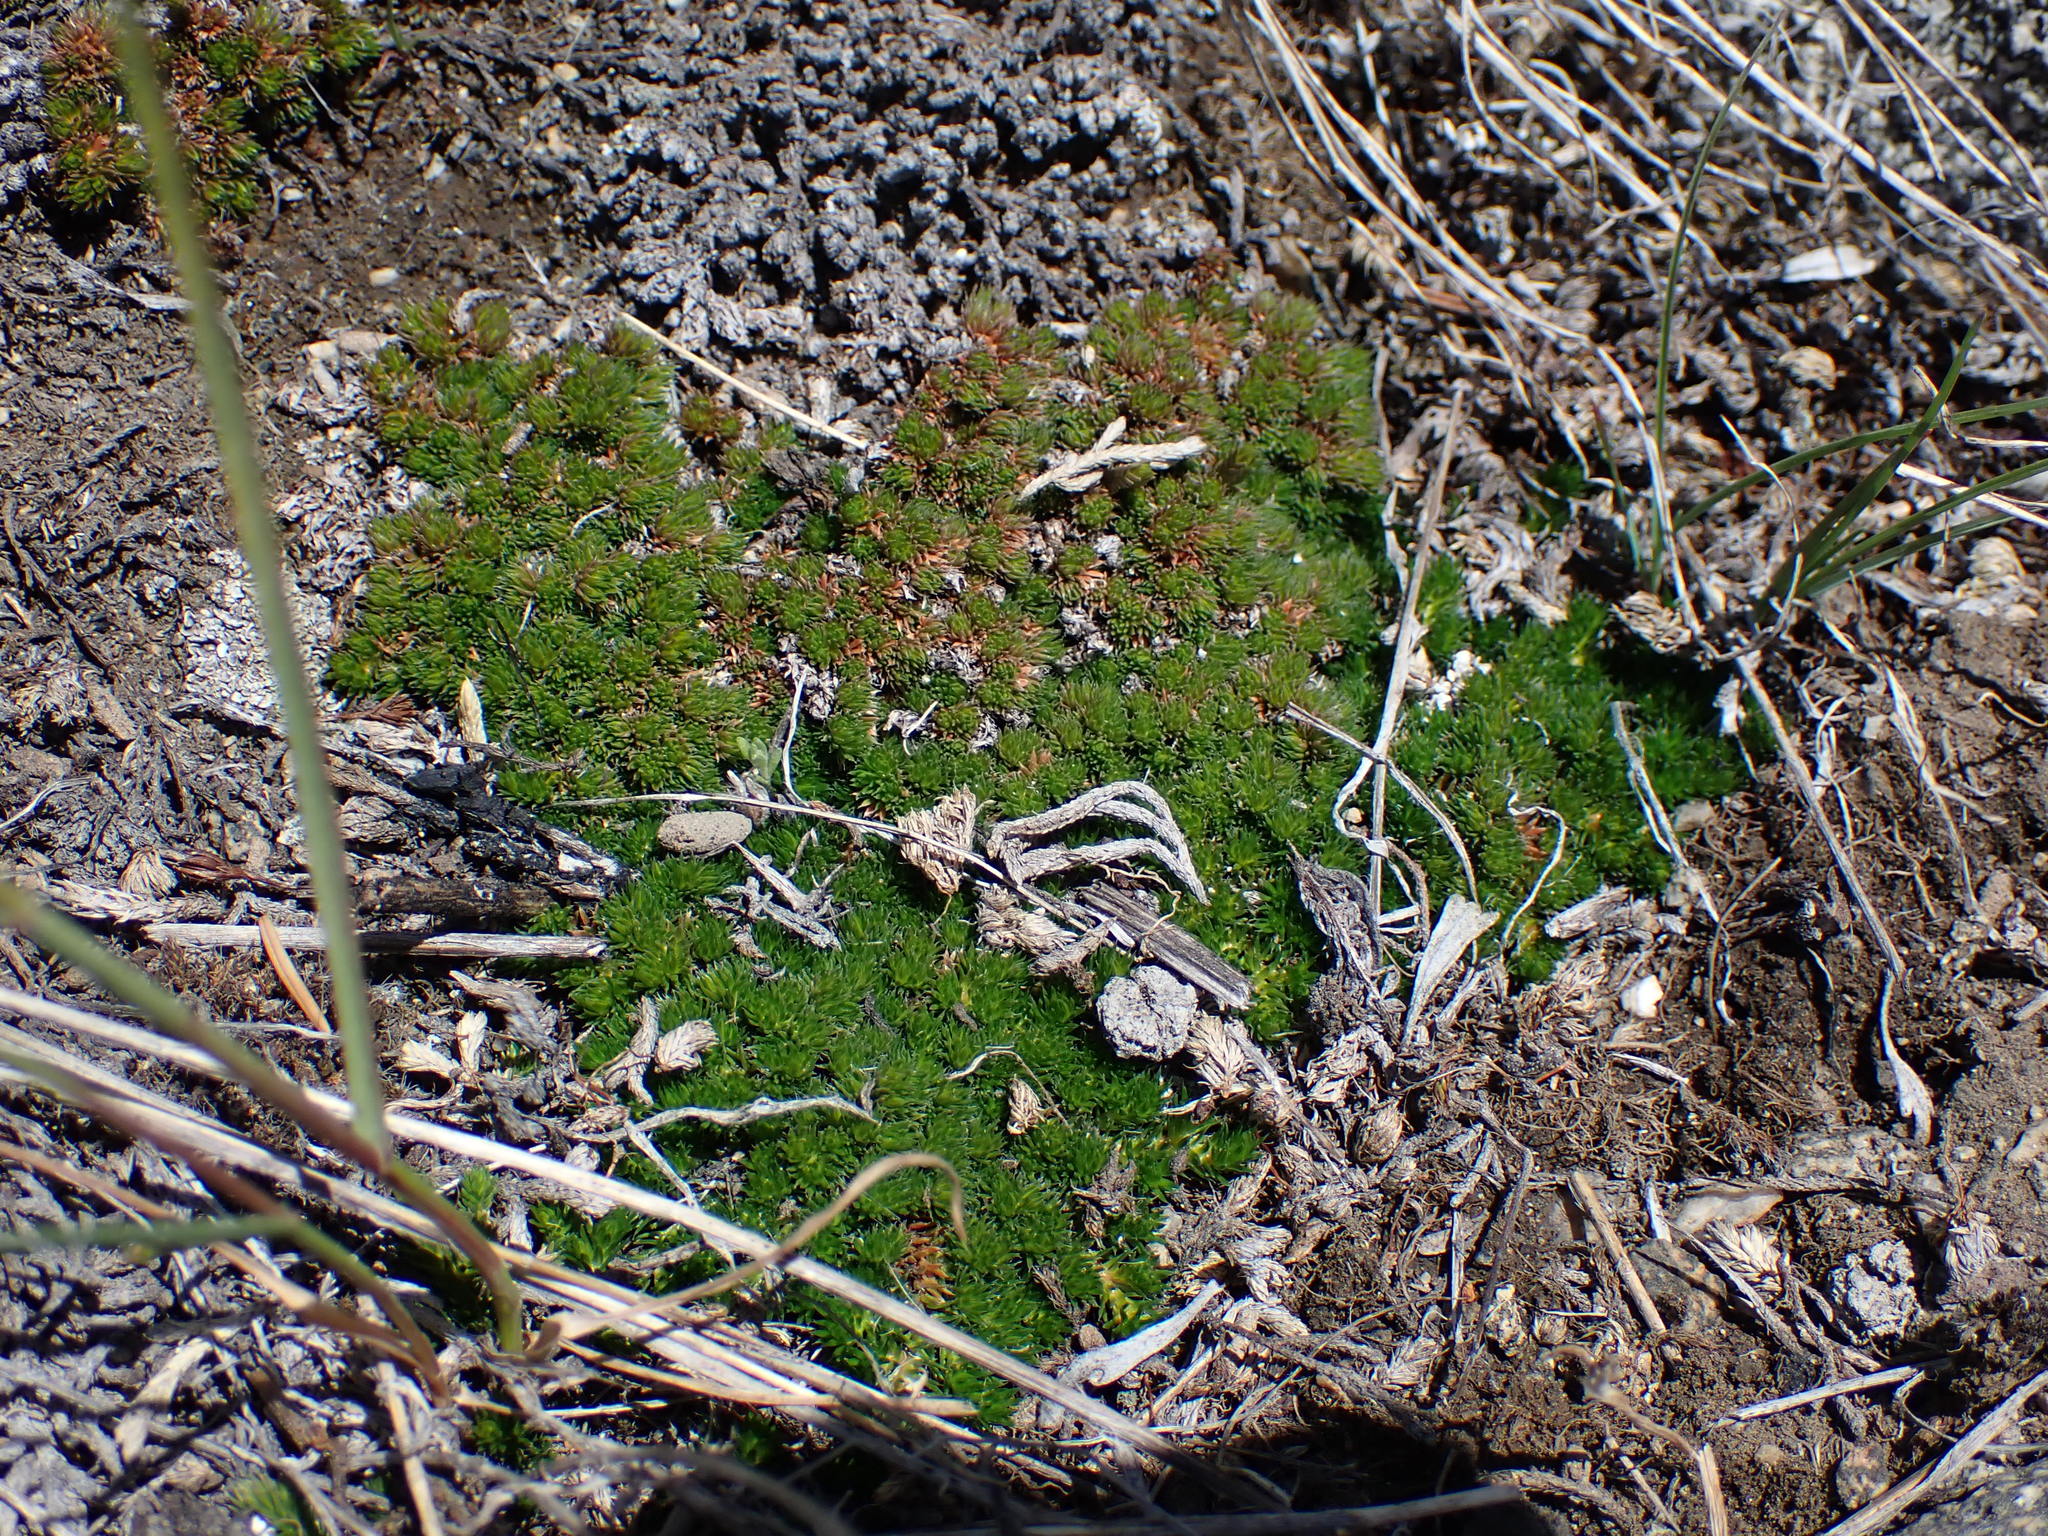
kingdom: Plantae
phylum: Tracheophyta
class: Lycopodiopsida
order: Selaginellales
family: Selaginellaceae
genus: Selaginella
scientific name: Selaginella densa
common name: Mountain spike-moss
